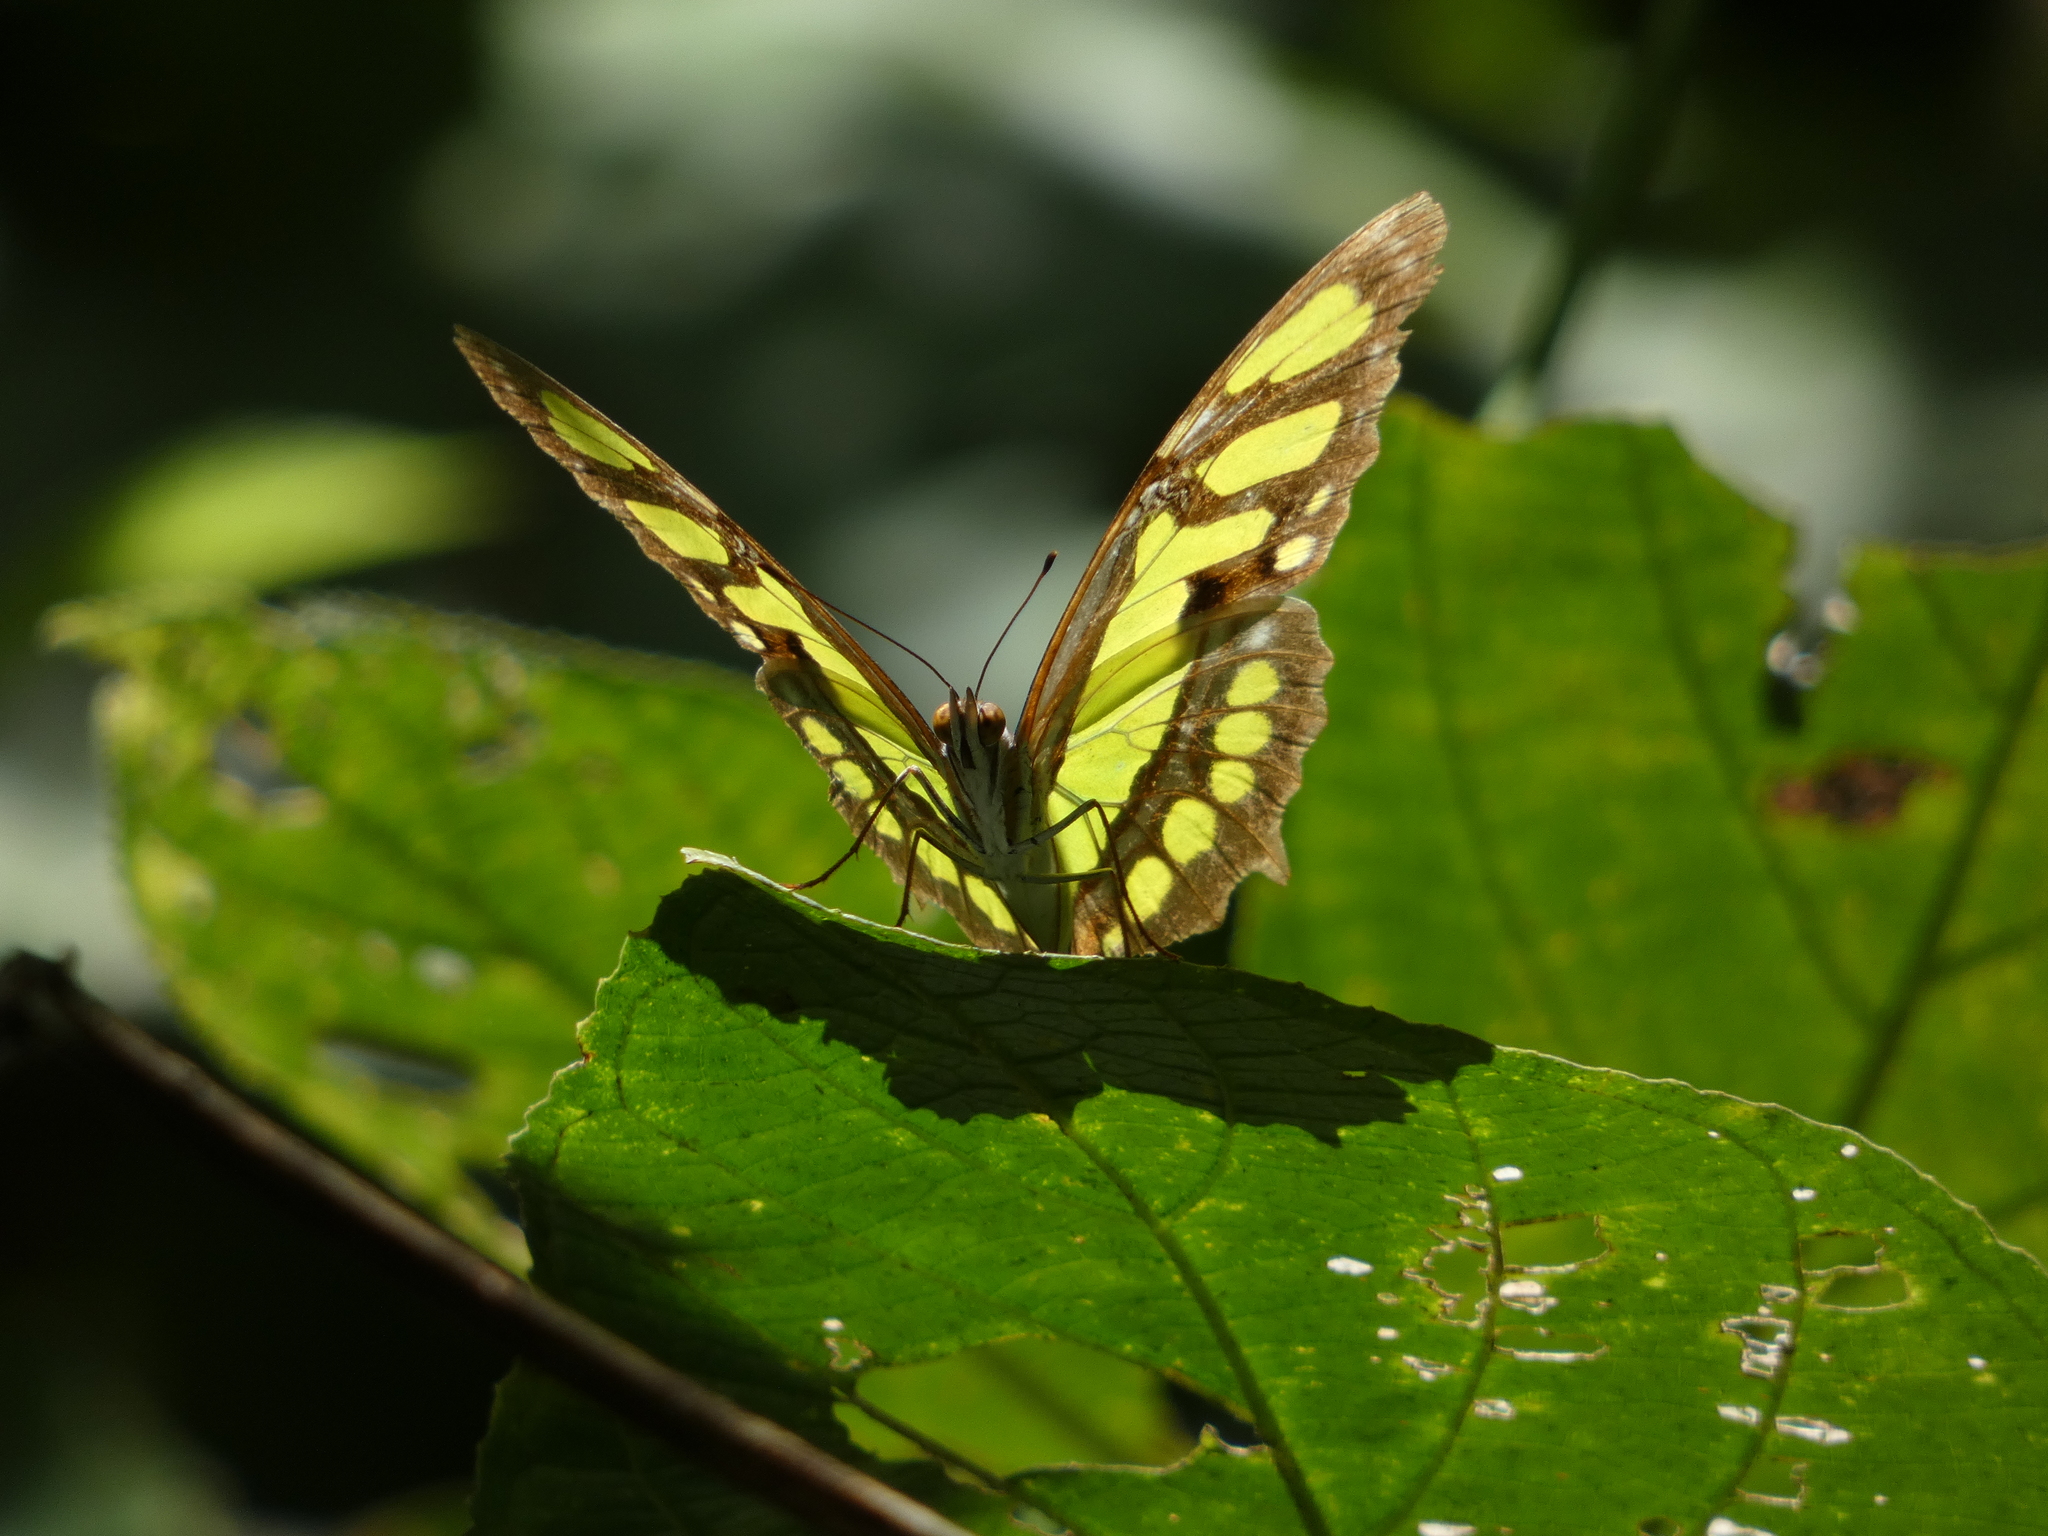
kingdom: Animalia
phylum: Arthropoda
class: Insecta
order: Lepidoptera
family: Nymphalidae
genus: Siproeta
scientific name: Siproeta stelenes
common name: Malachite
